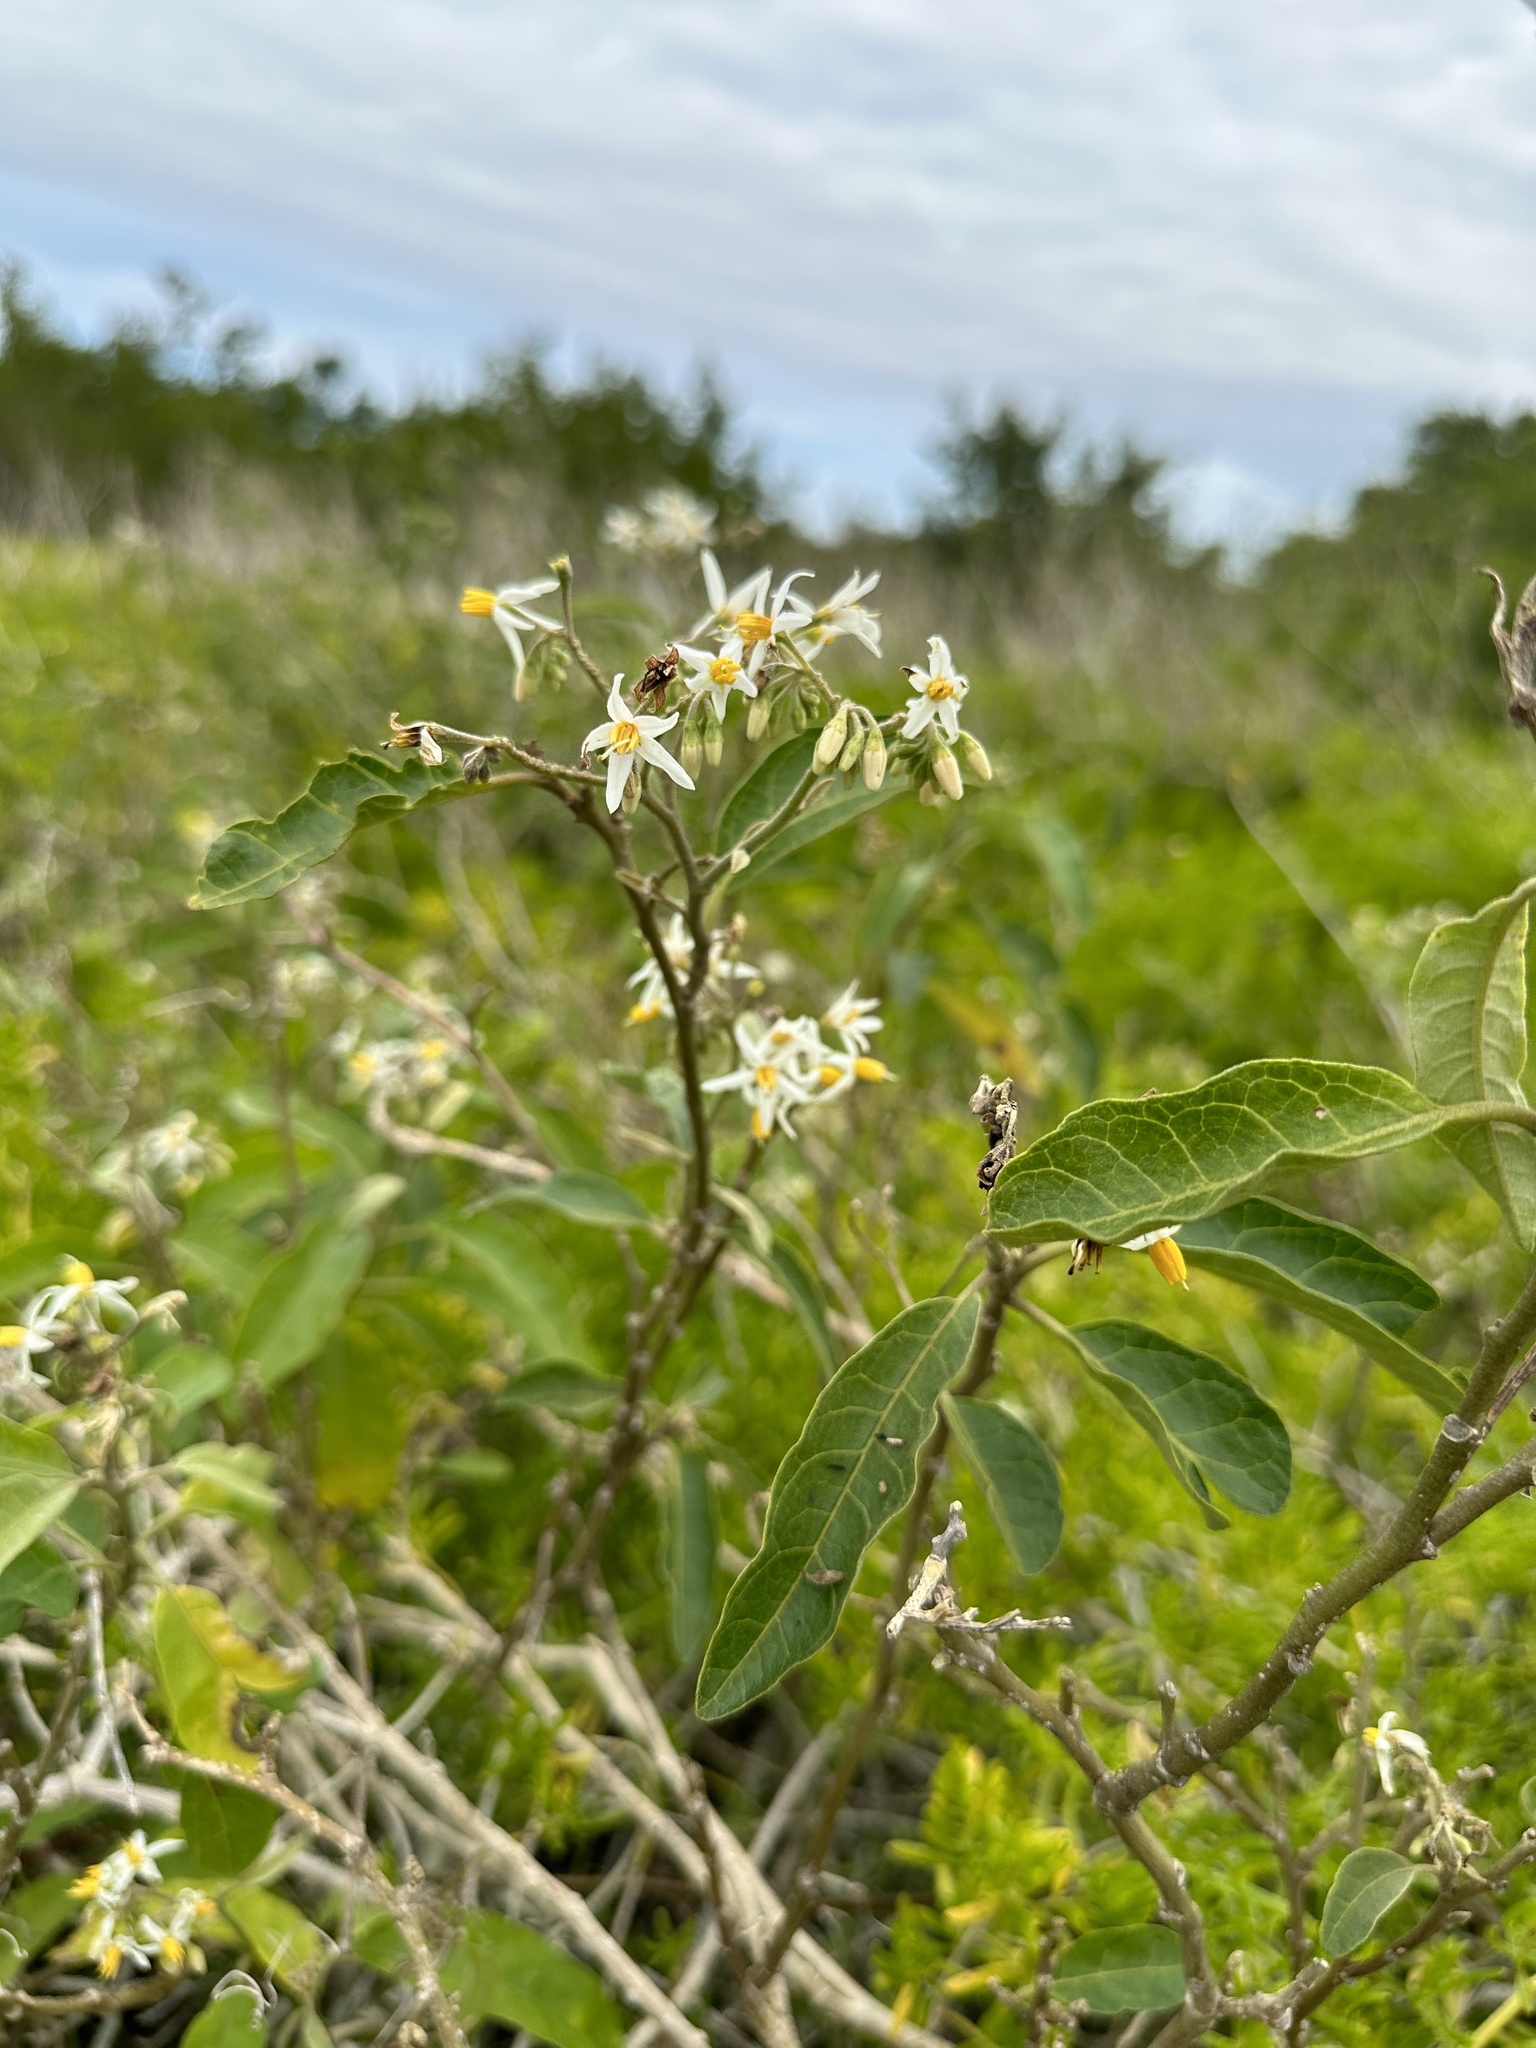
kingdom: Plantae
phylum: Tracheophyta
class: Magnoliopsida
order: Solanales
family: Solanaceae
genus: Solanum
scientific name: Solanum donianum
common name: Mullein nightshade
